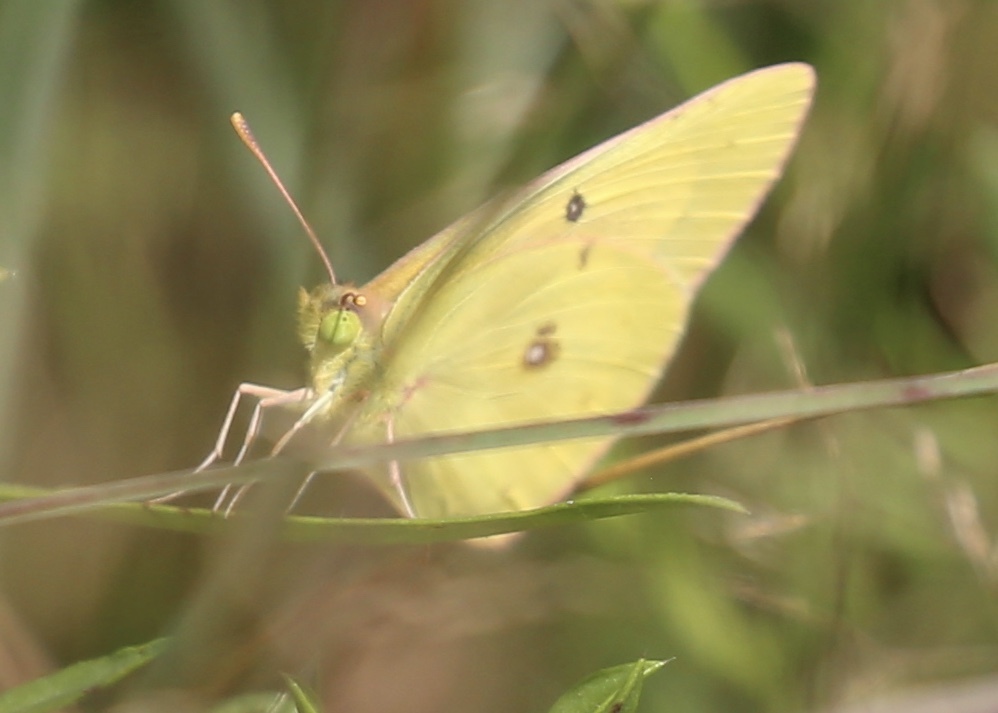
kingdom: Animalia
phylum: Arthropoda
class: Insecta
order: Lepidoptera
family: Pieridae
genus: Colias
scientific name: Colias eurytheme
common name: Alfalfa butterfly
